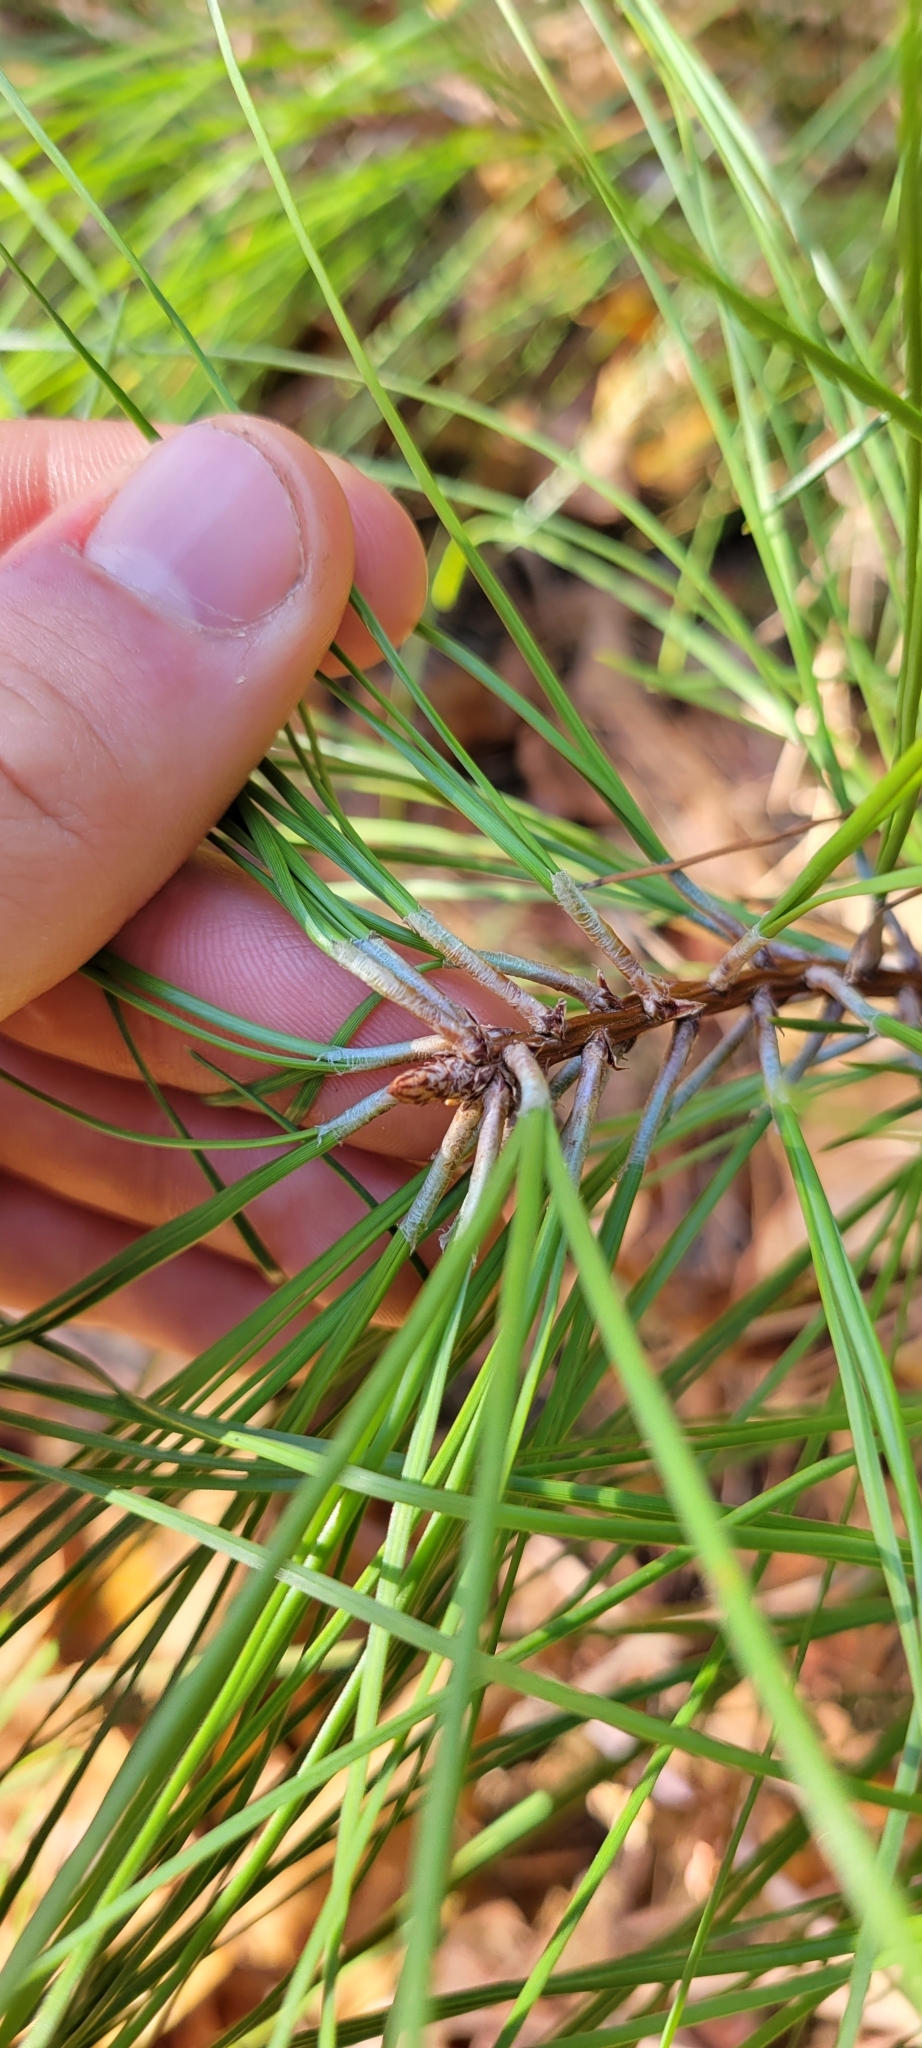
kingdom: Plantae
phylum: Tracheophyta
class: Pinopsida
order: Pinales
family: Pinaceae
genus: Pinus
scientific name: Pinus strobus
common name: Weymouth pine
